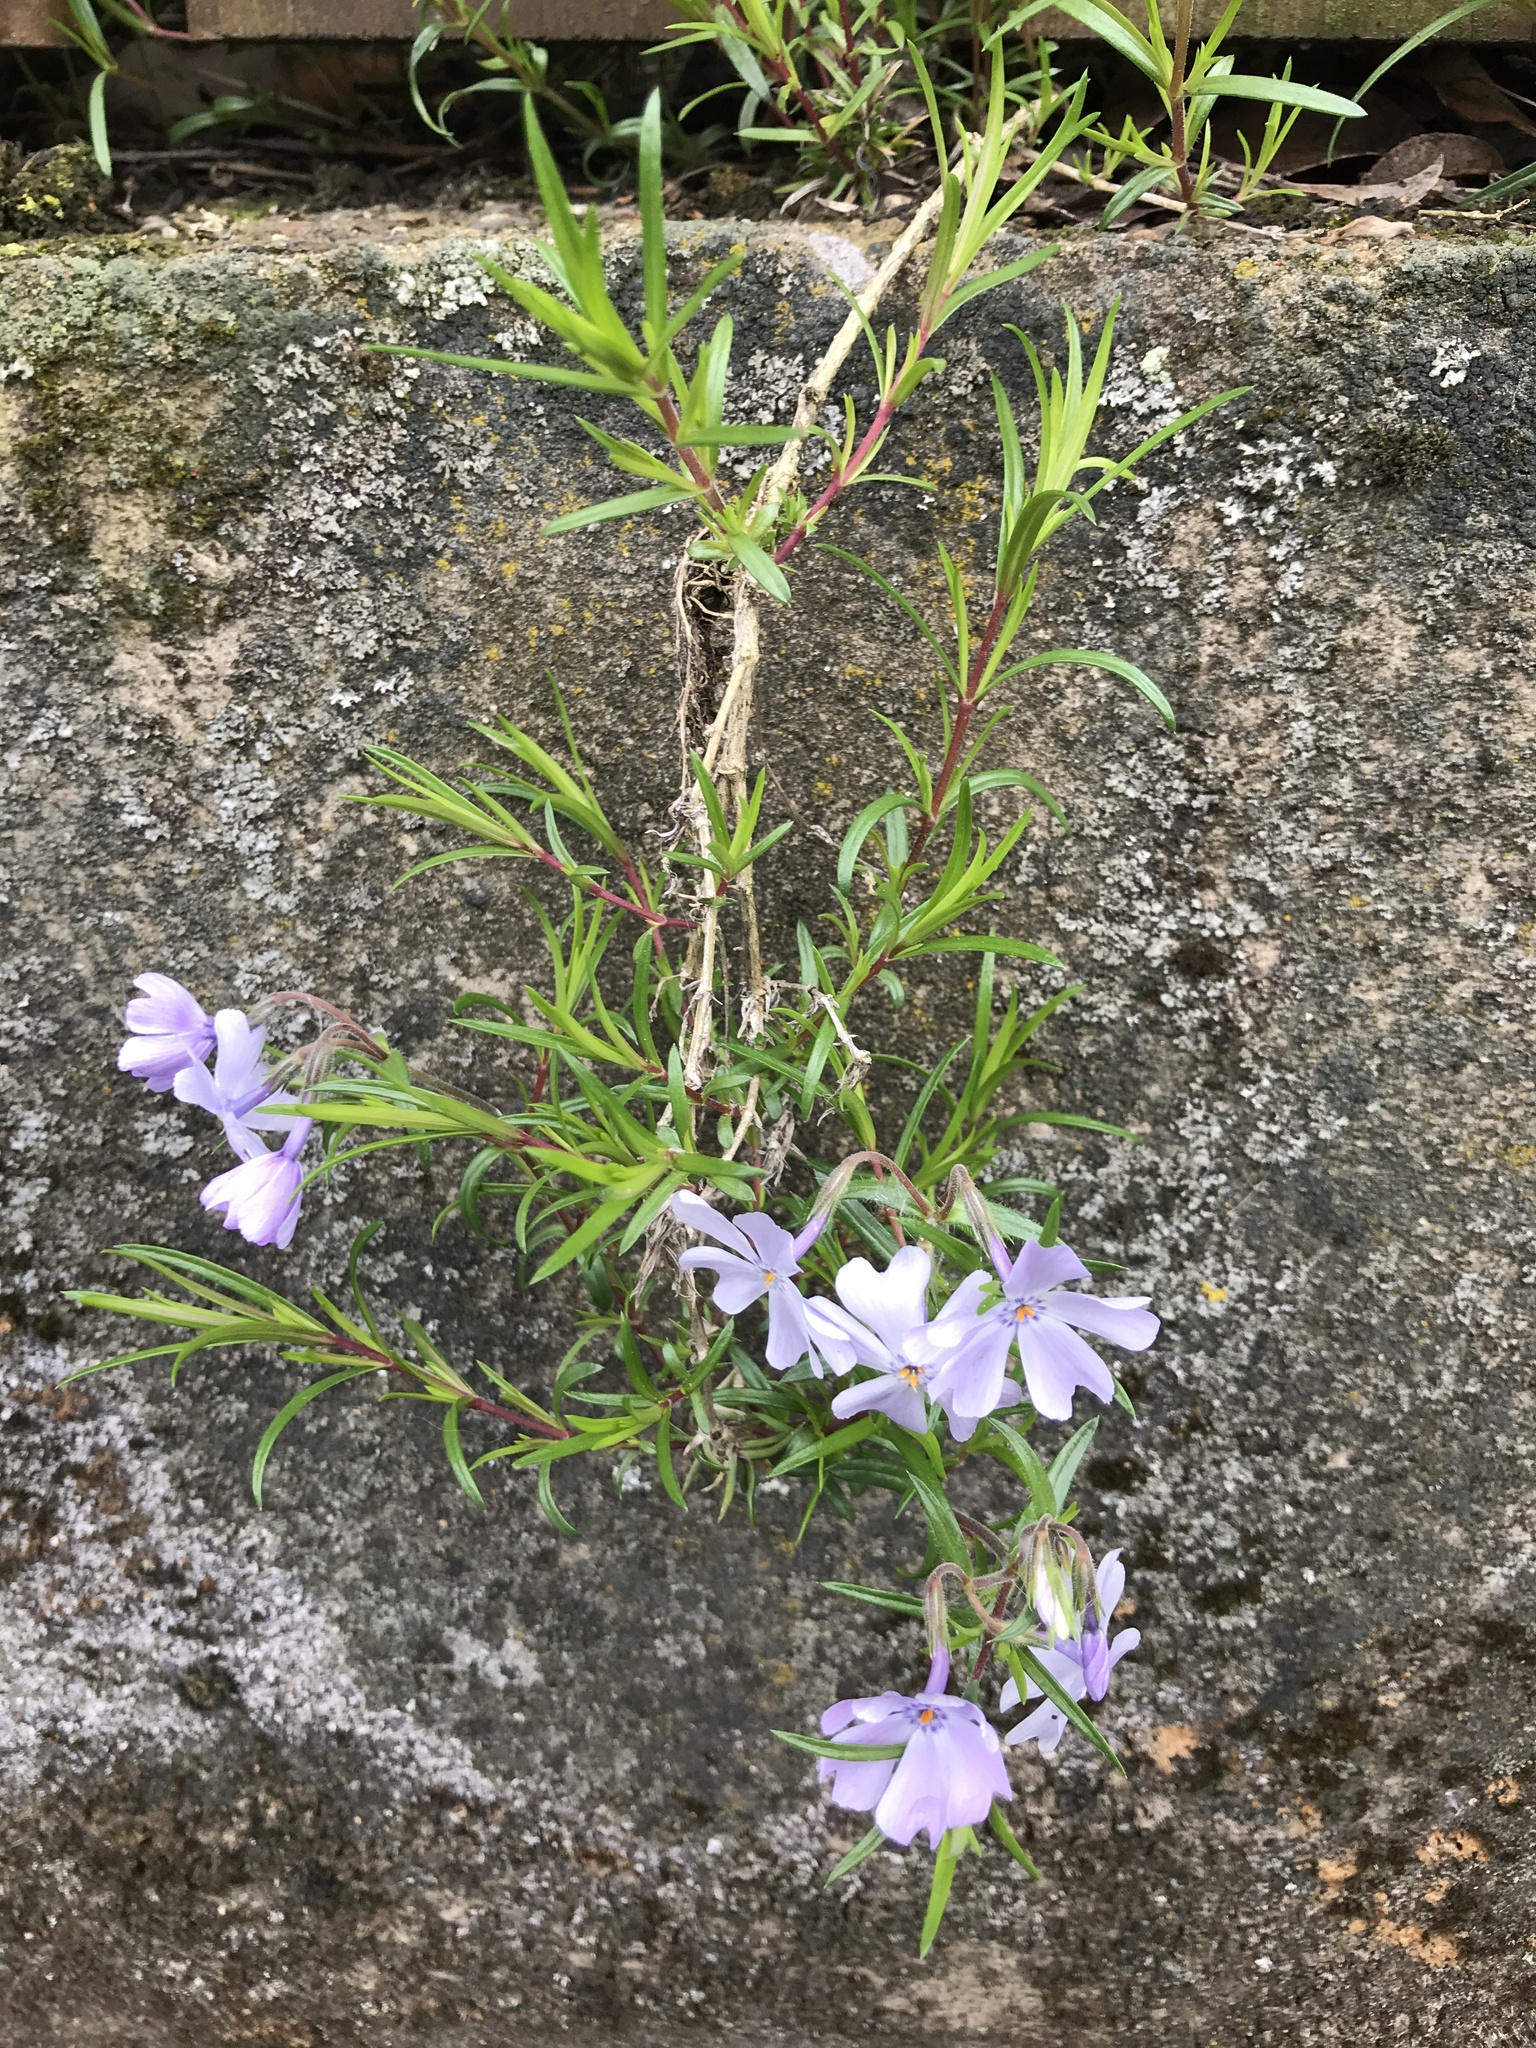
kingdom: Plantae
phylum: Tracheophyta
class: Magnoliopsida
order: Ericales
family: Polemoniaceae
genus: Phlox
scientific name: Phlox subulata
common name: Moss phlox
